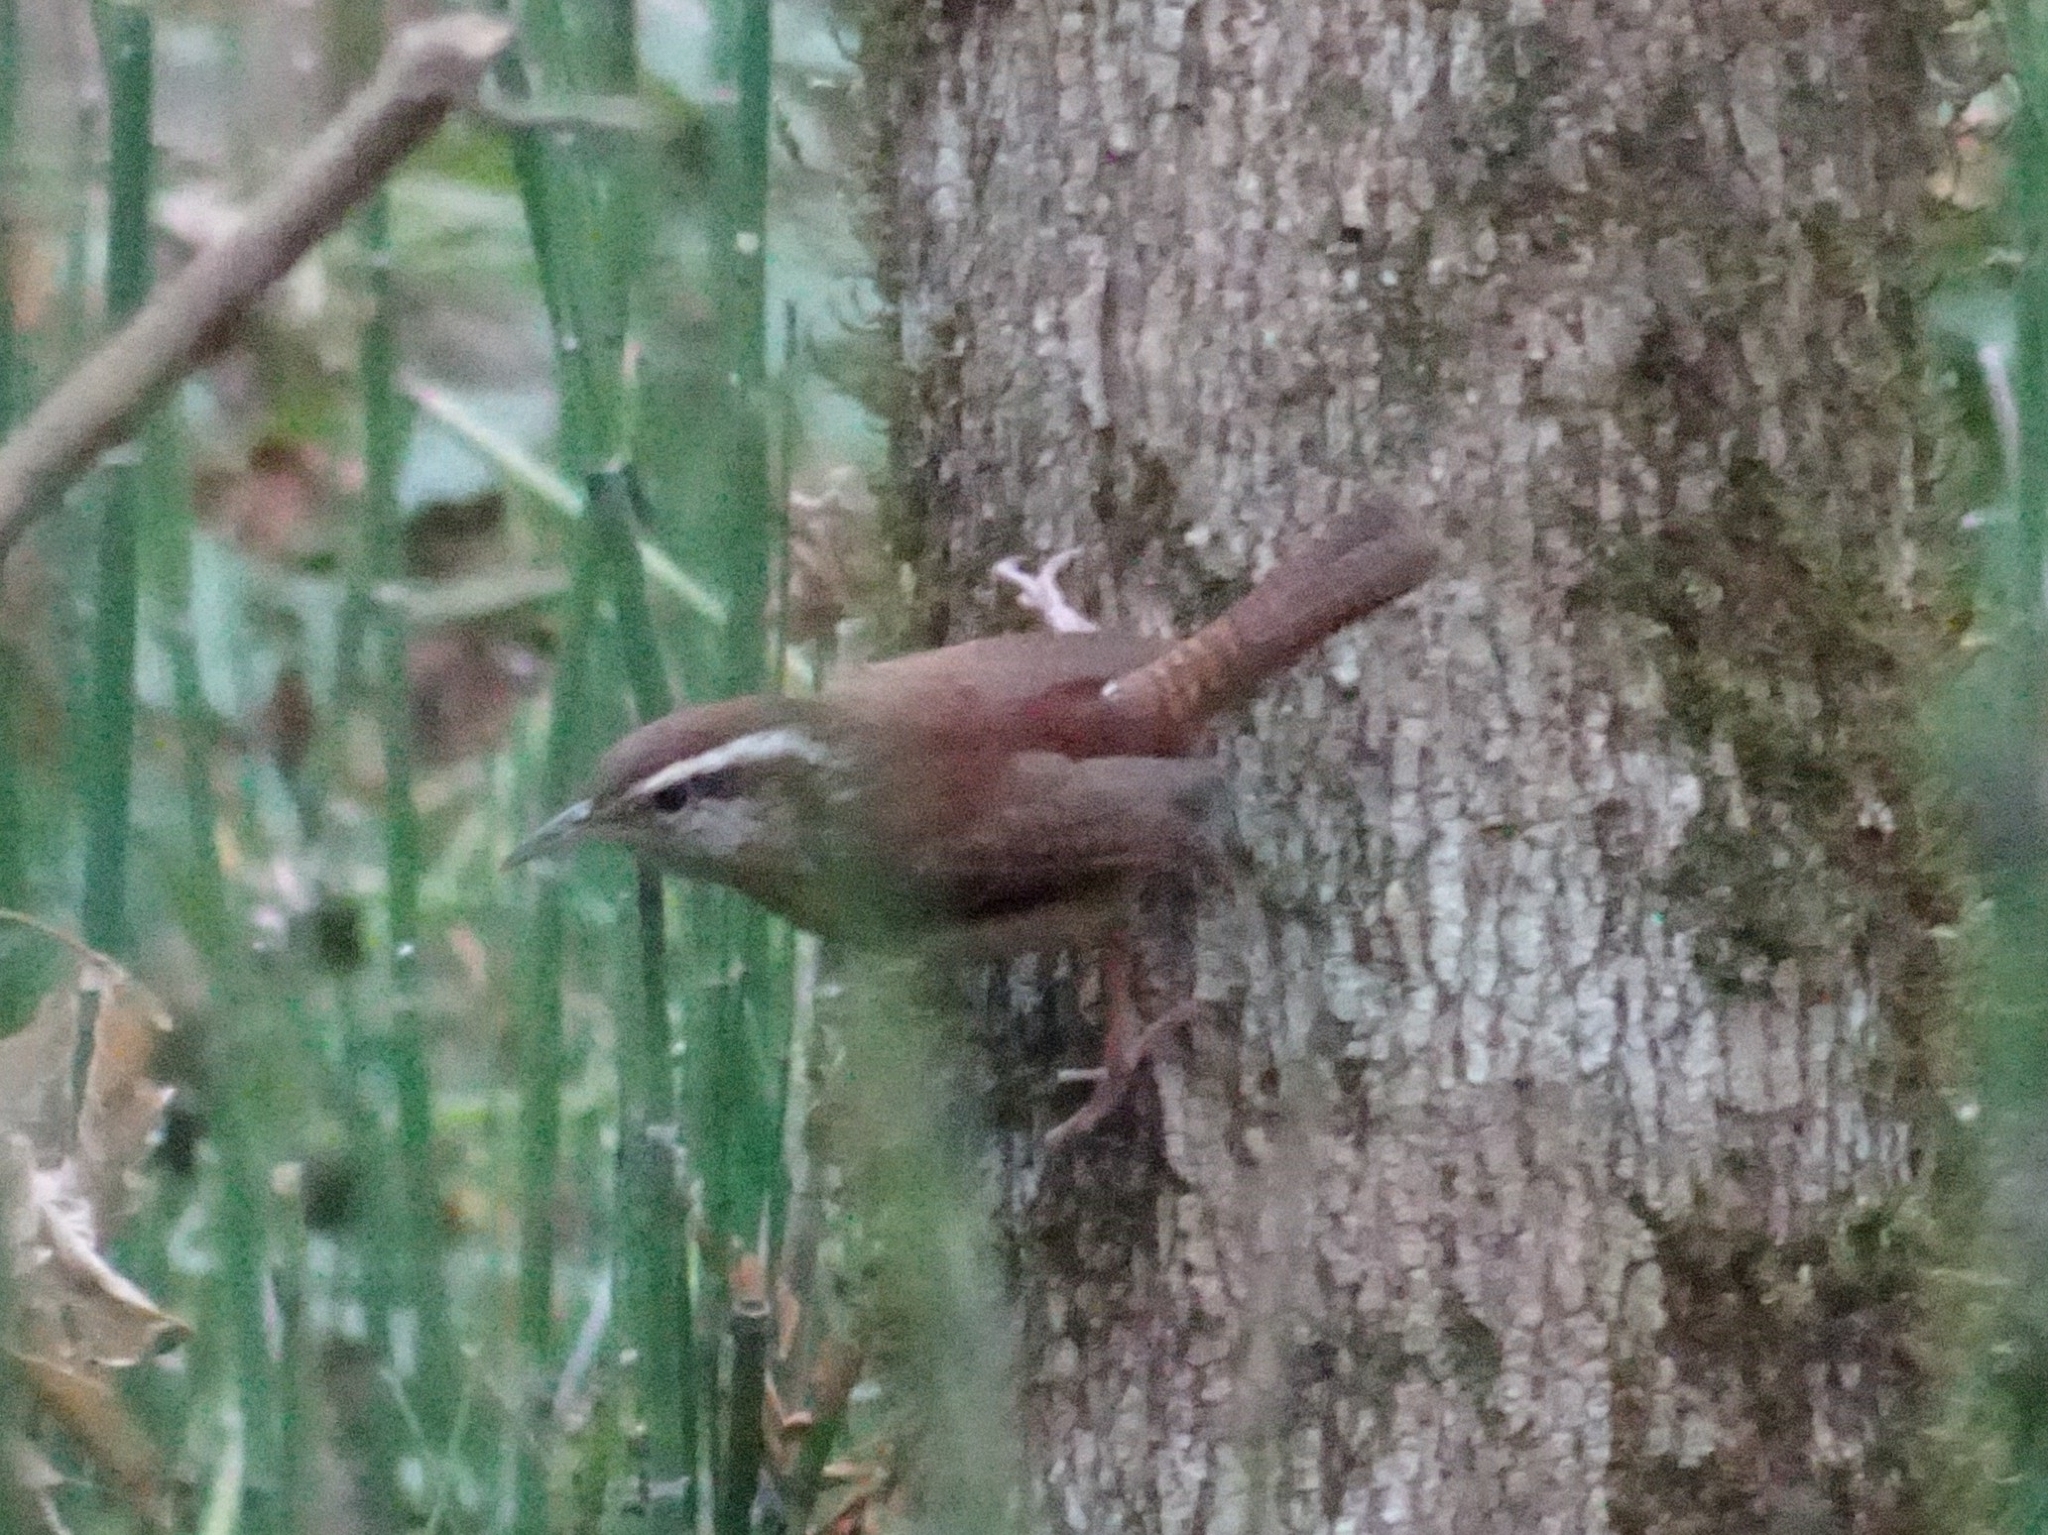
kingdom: Animalia
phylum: Chordata
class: Aves
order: Passeriformes
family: Troglodytidae
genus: Thryothorus
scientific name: Thryothorus ludovicianus
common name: Carolina wren
